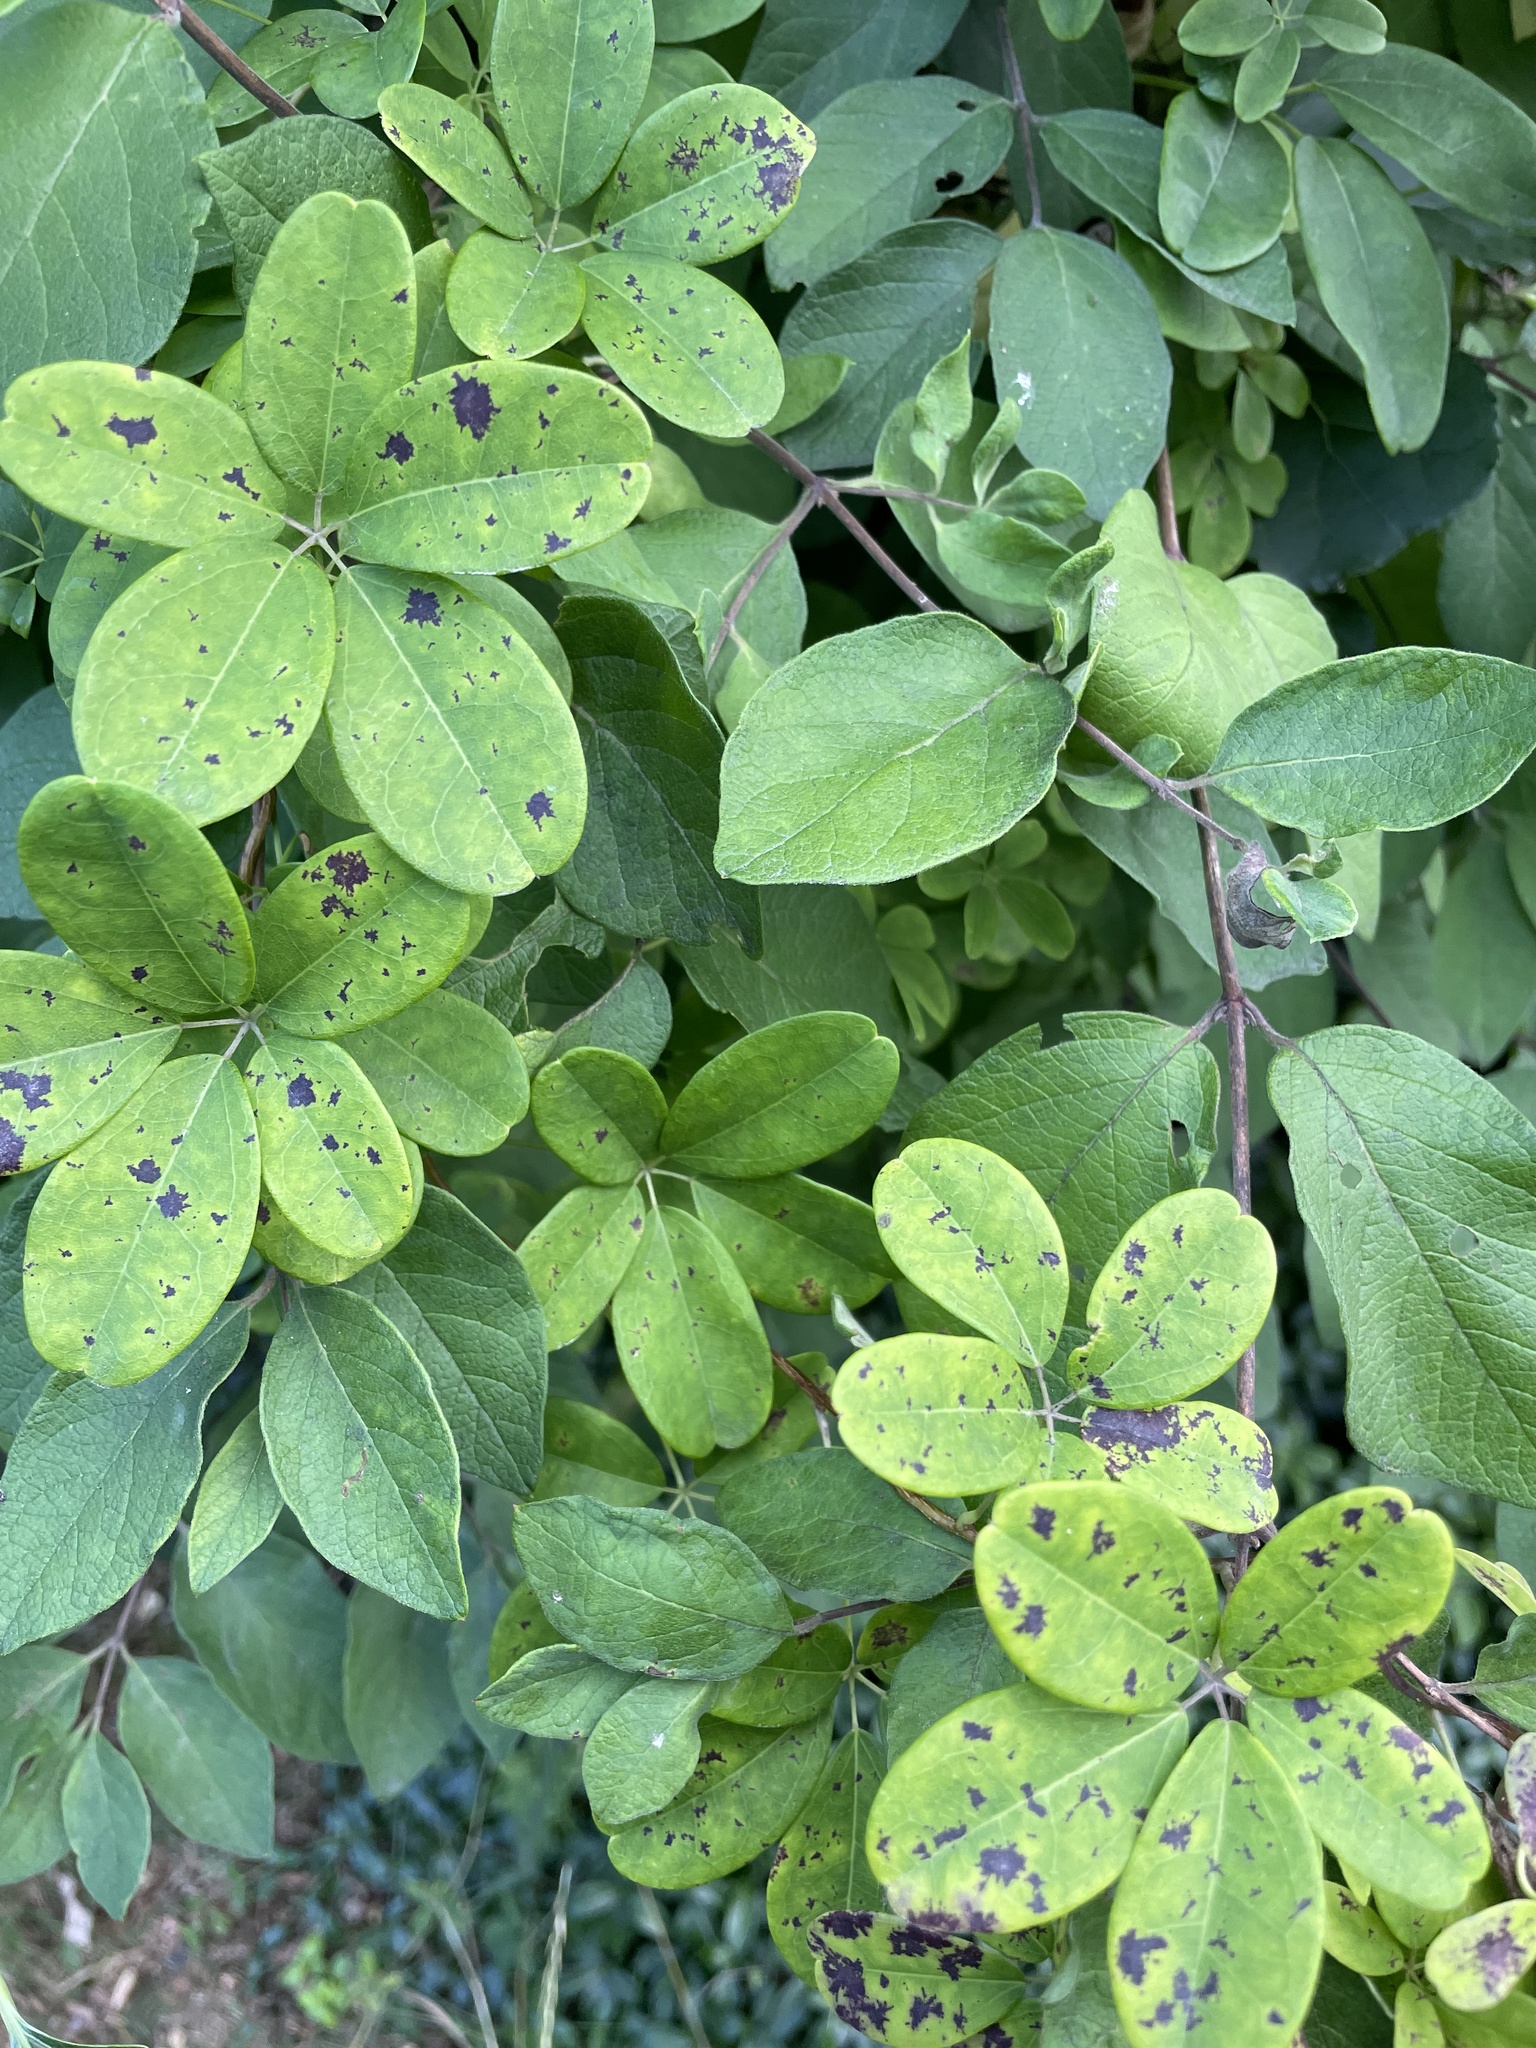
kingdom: Plantae
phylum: Tracheophyta
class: Magnoliopsida
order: Ranunculales
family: Lardizabalaceae
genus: Akebia
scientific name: Akebia quinata
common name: Five-leaf akebia
